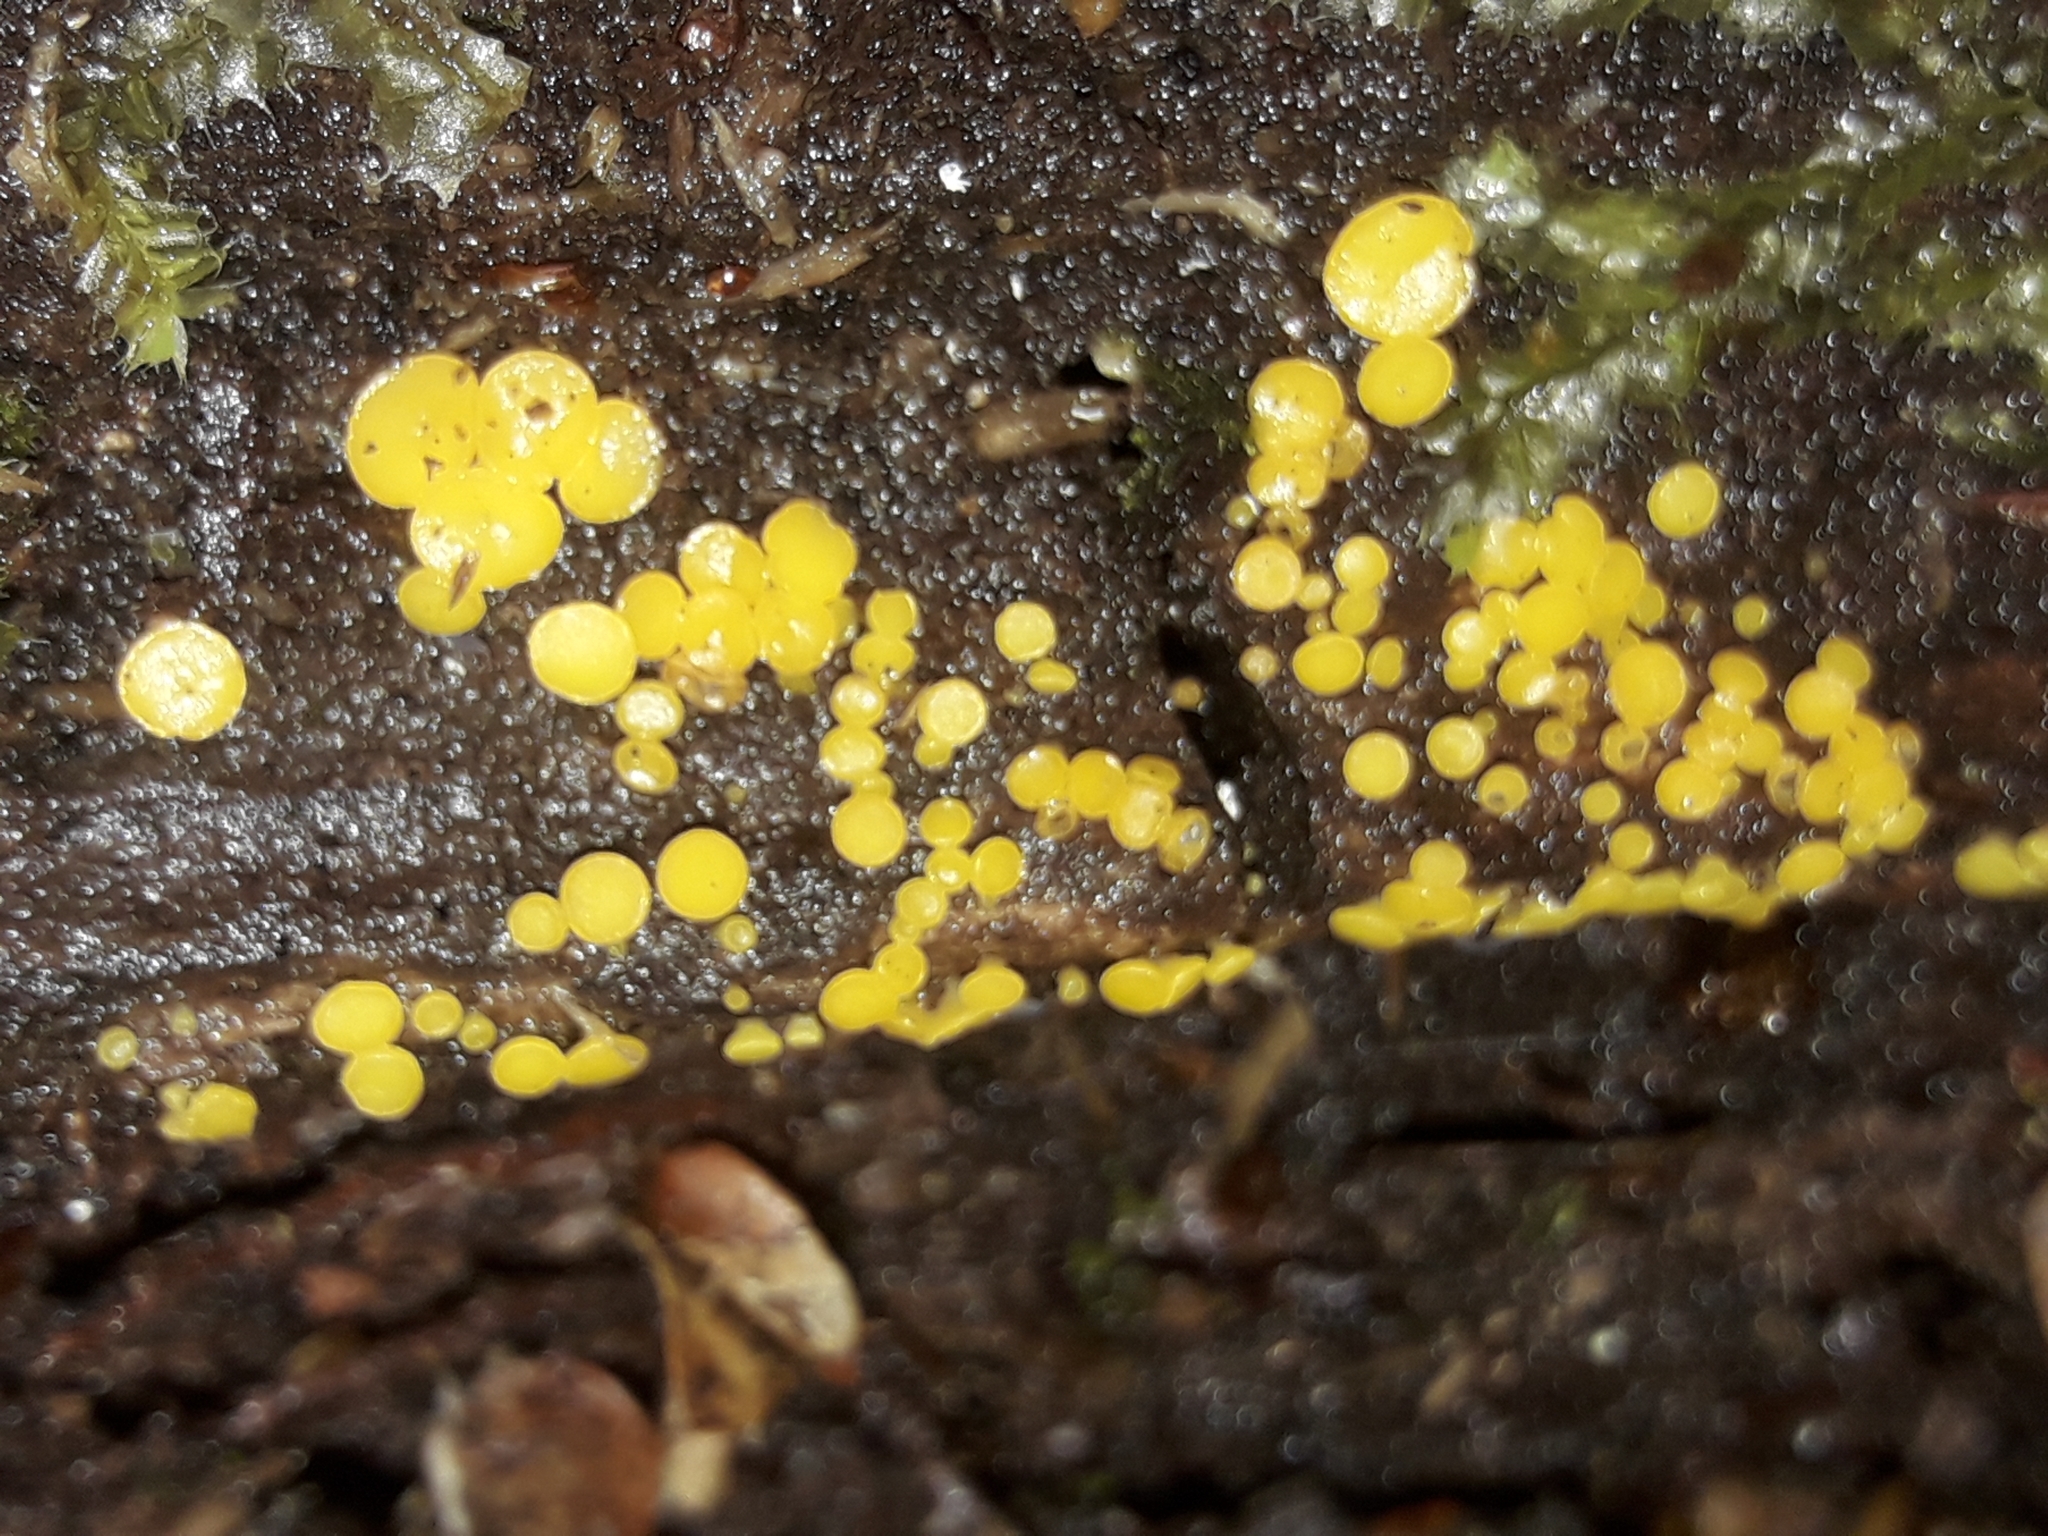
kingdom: Fungi
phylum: Ascomycota
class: Leotiomycetes
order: Helotiales
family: Pezizellaceae
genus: Calycina
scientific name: Calycina citrina
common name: Yellow fairy cups
